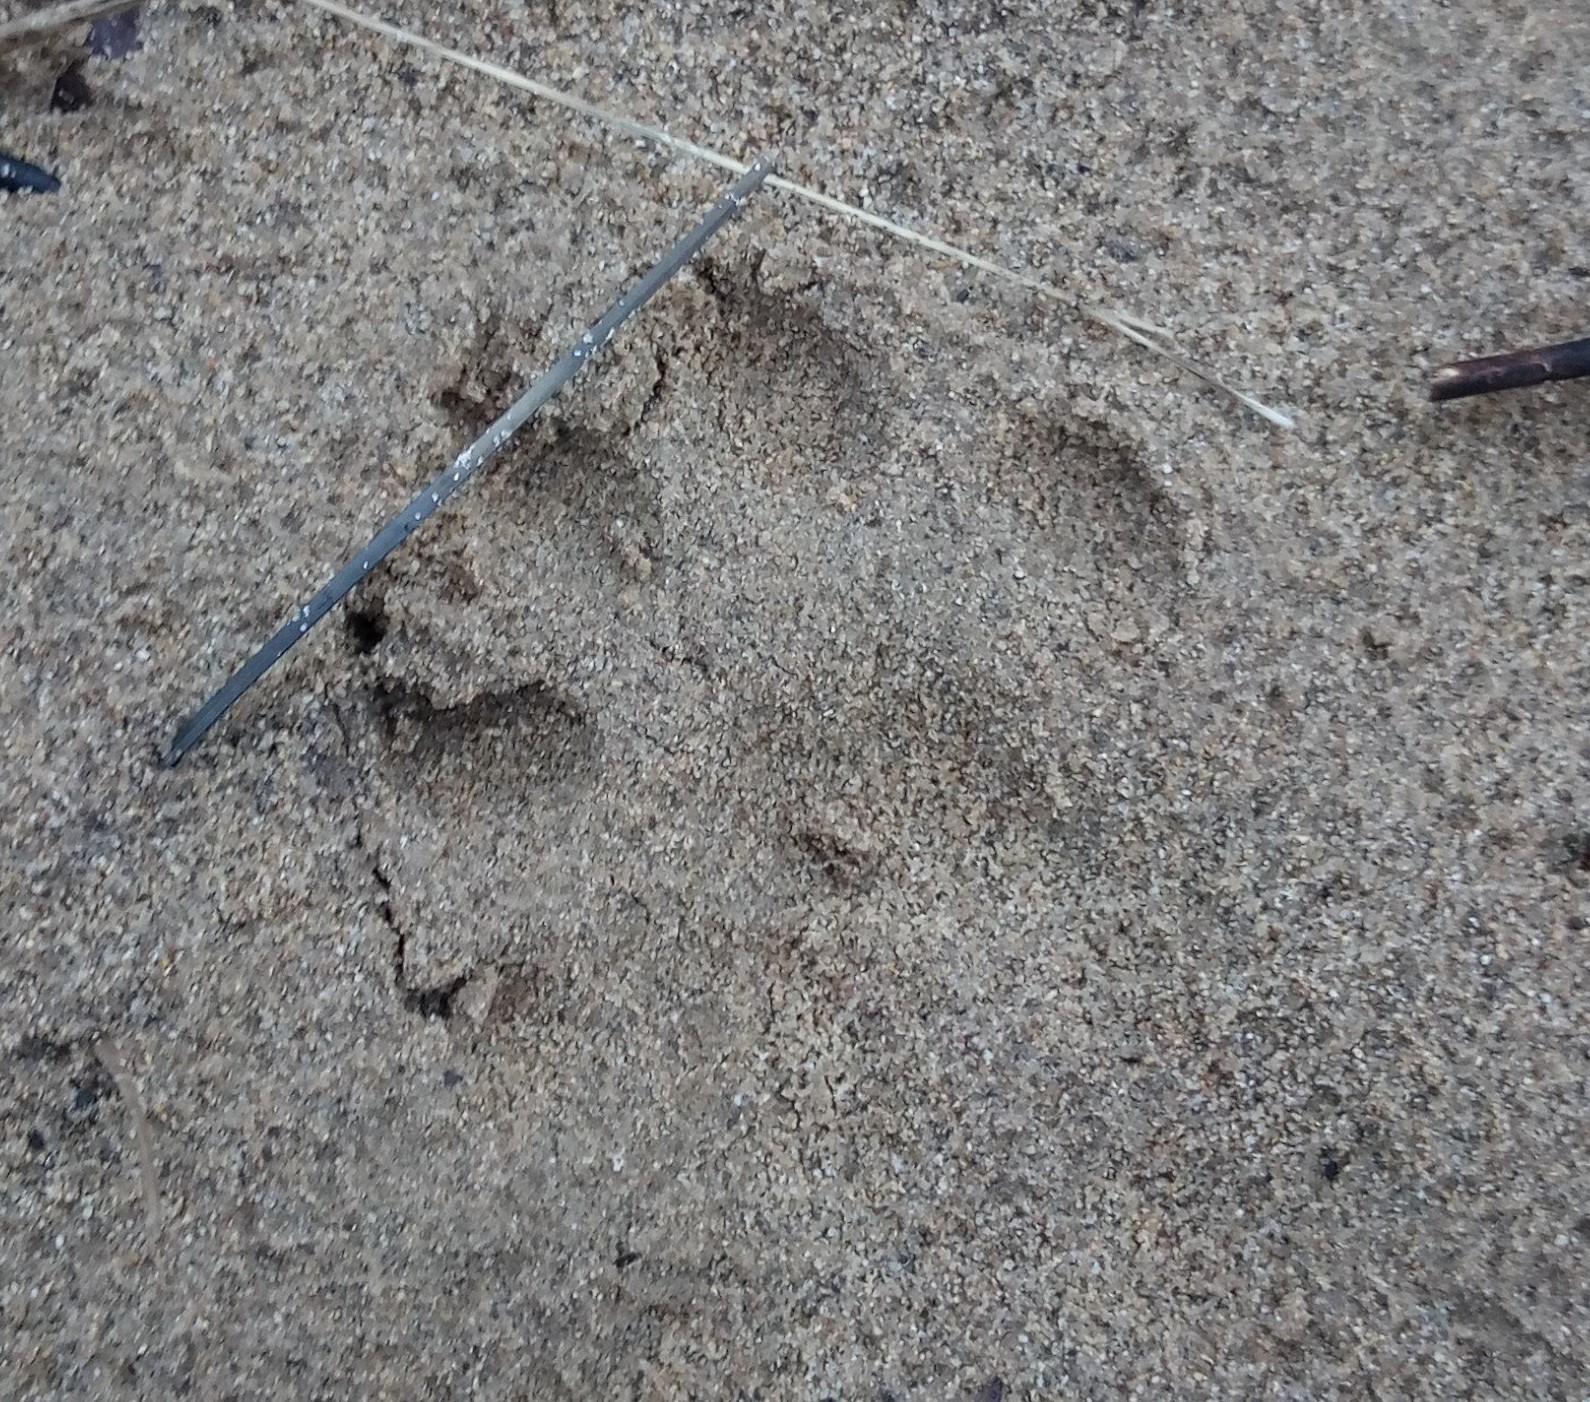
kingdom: Animalia
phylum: Chordata
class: Mammalia
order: Carnivora
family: Mustelidae
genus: Lontra
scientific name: Lontra canadensis
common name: North american river otter
